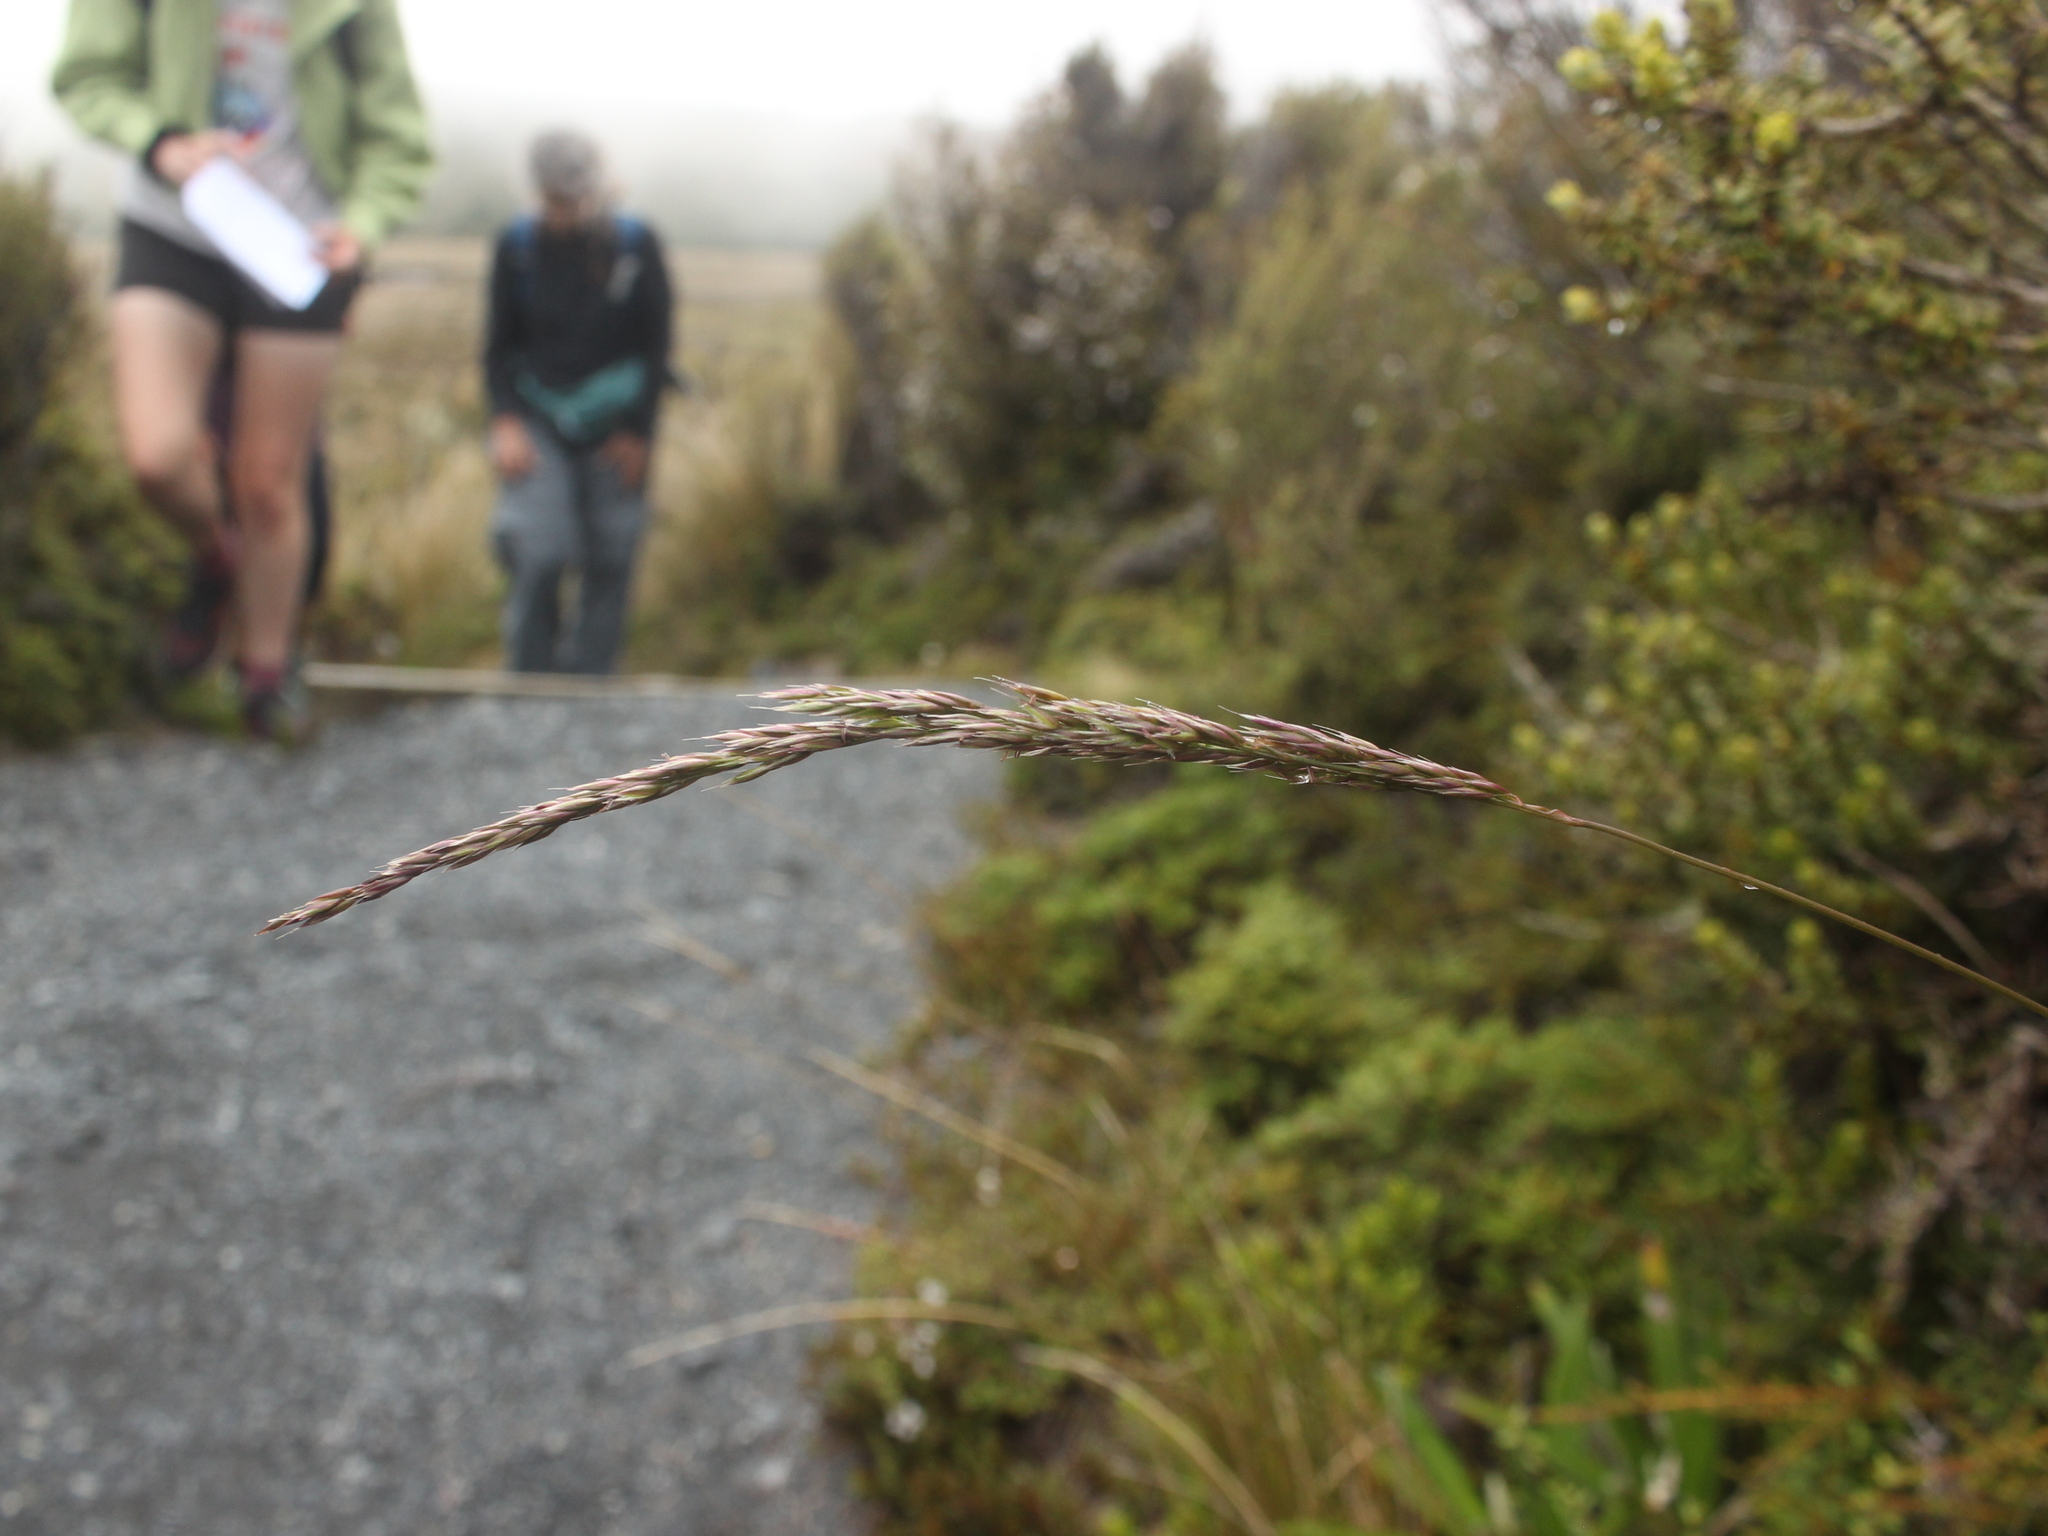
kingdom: Plantae
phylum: Tracheophyta
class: Liliopsida
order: Poales
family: Poaceae
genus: Calamagrostis
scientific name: Calamagrostis avenoides
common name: Mountain oat grass
